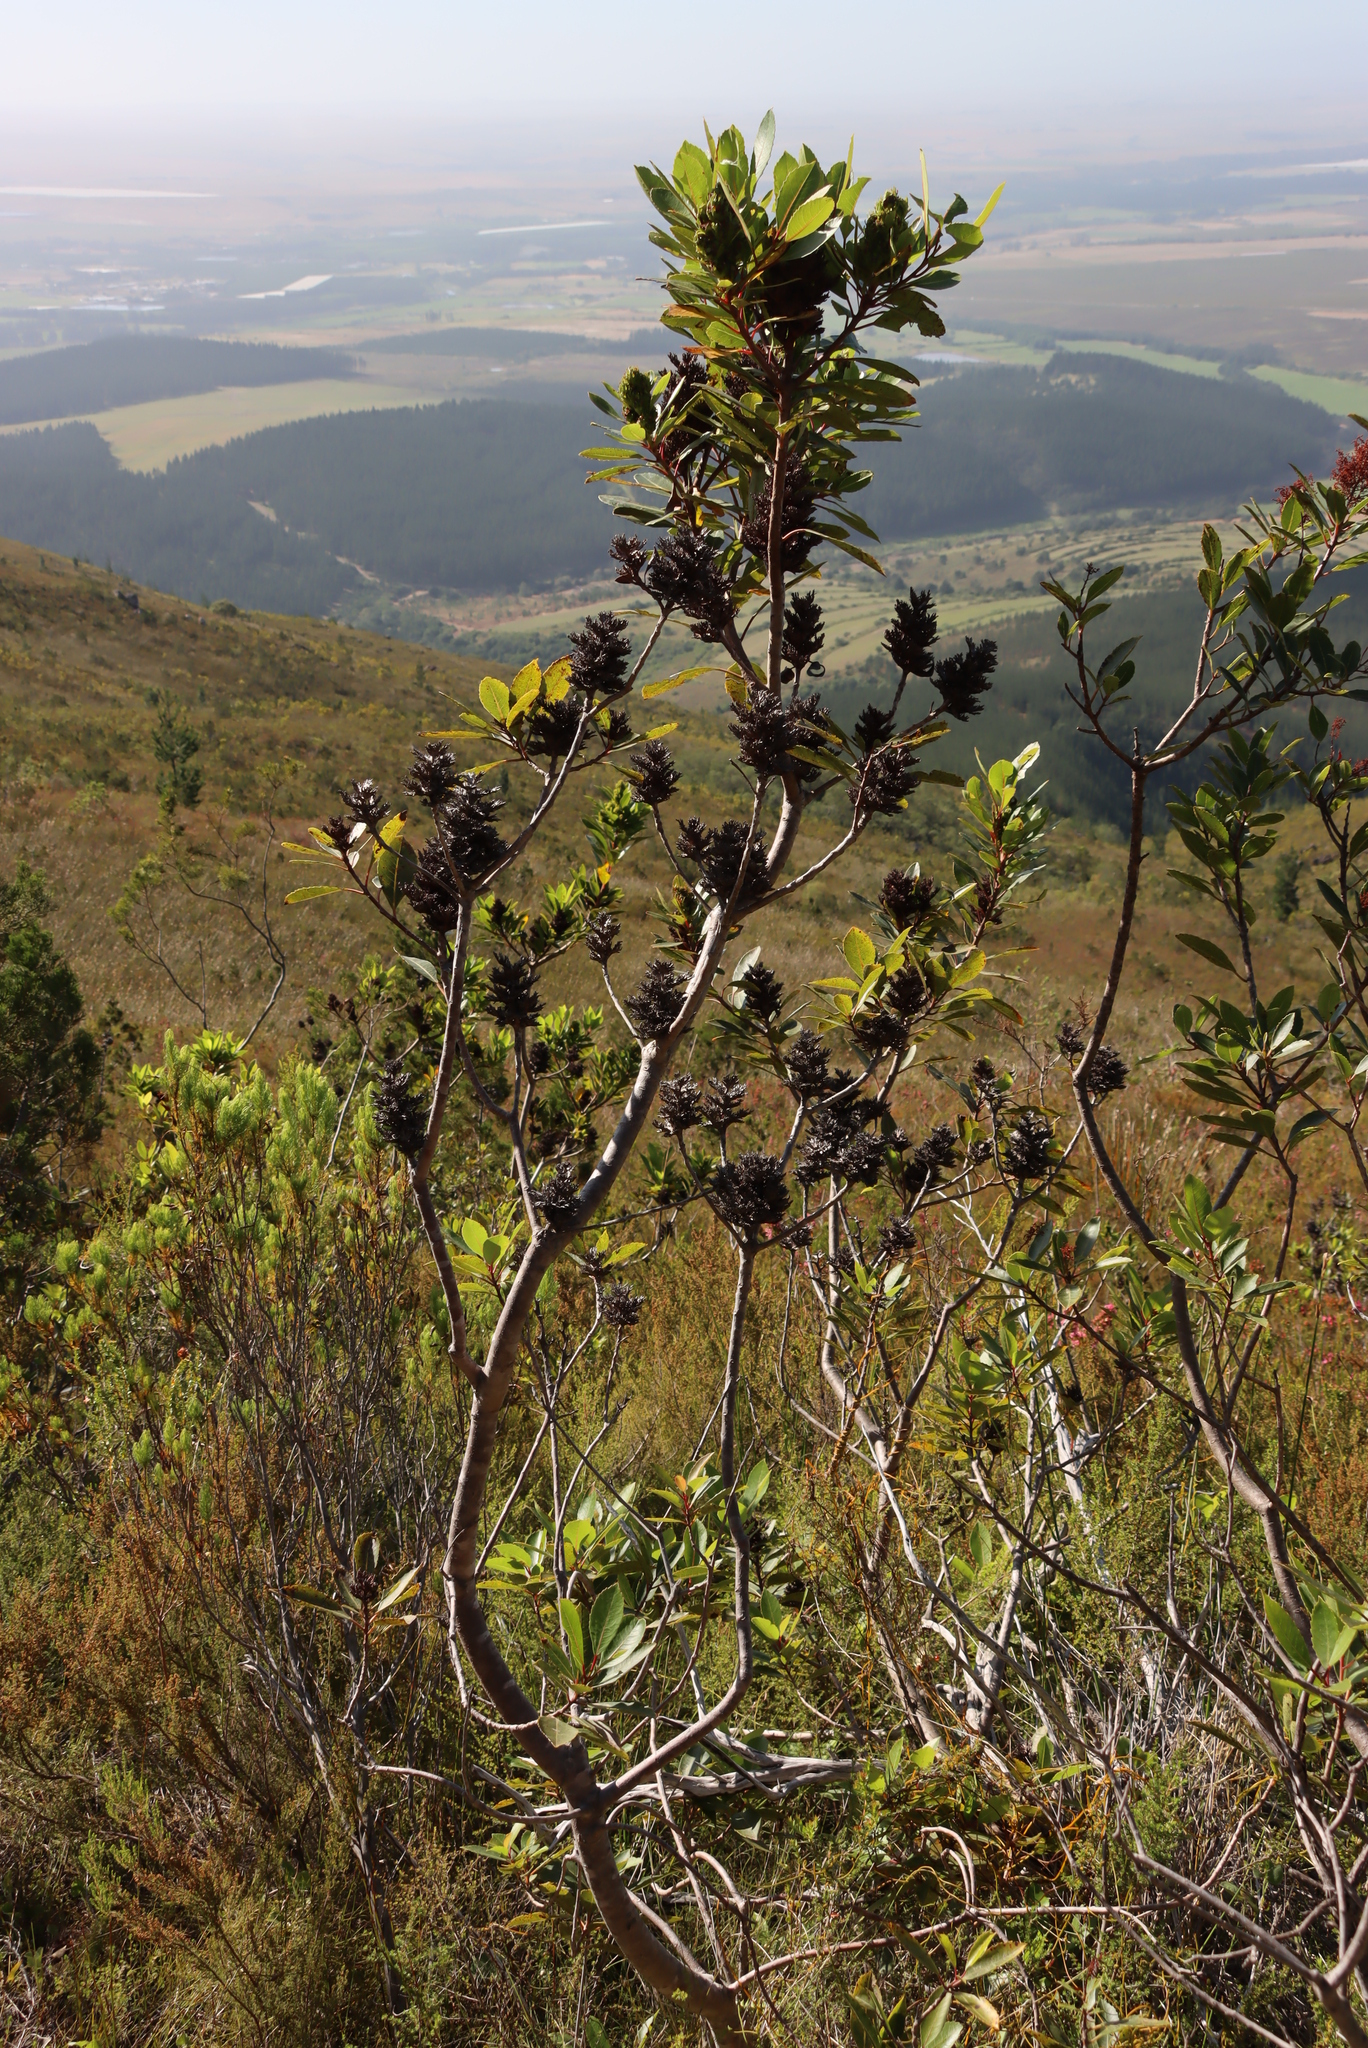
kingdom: Plantae
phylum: Tracheophyta
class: Magnoliopsida
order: Sapindales
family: Anacardiaceae
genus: Laurophyllus
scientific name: Laurophyllus capensis
